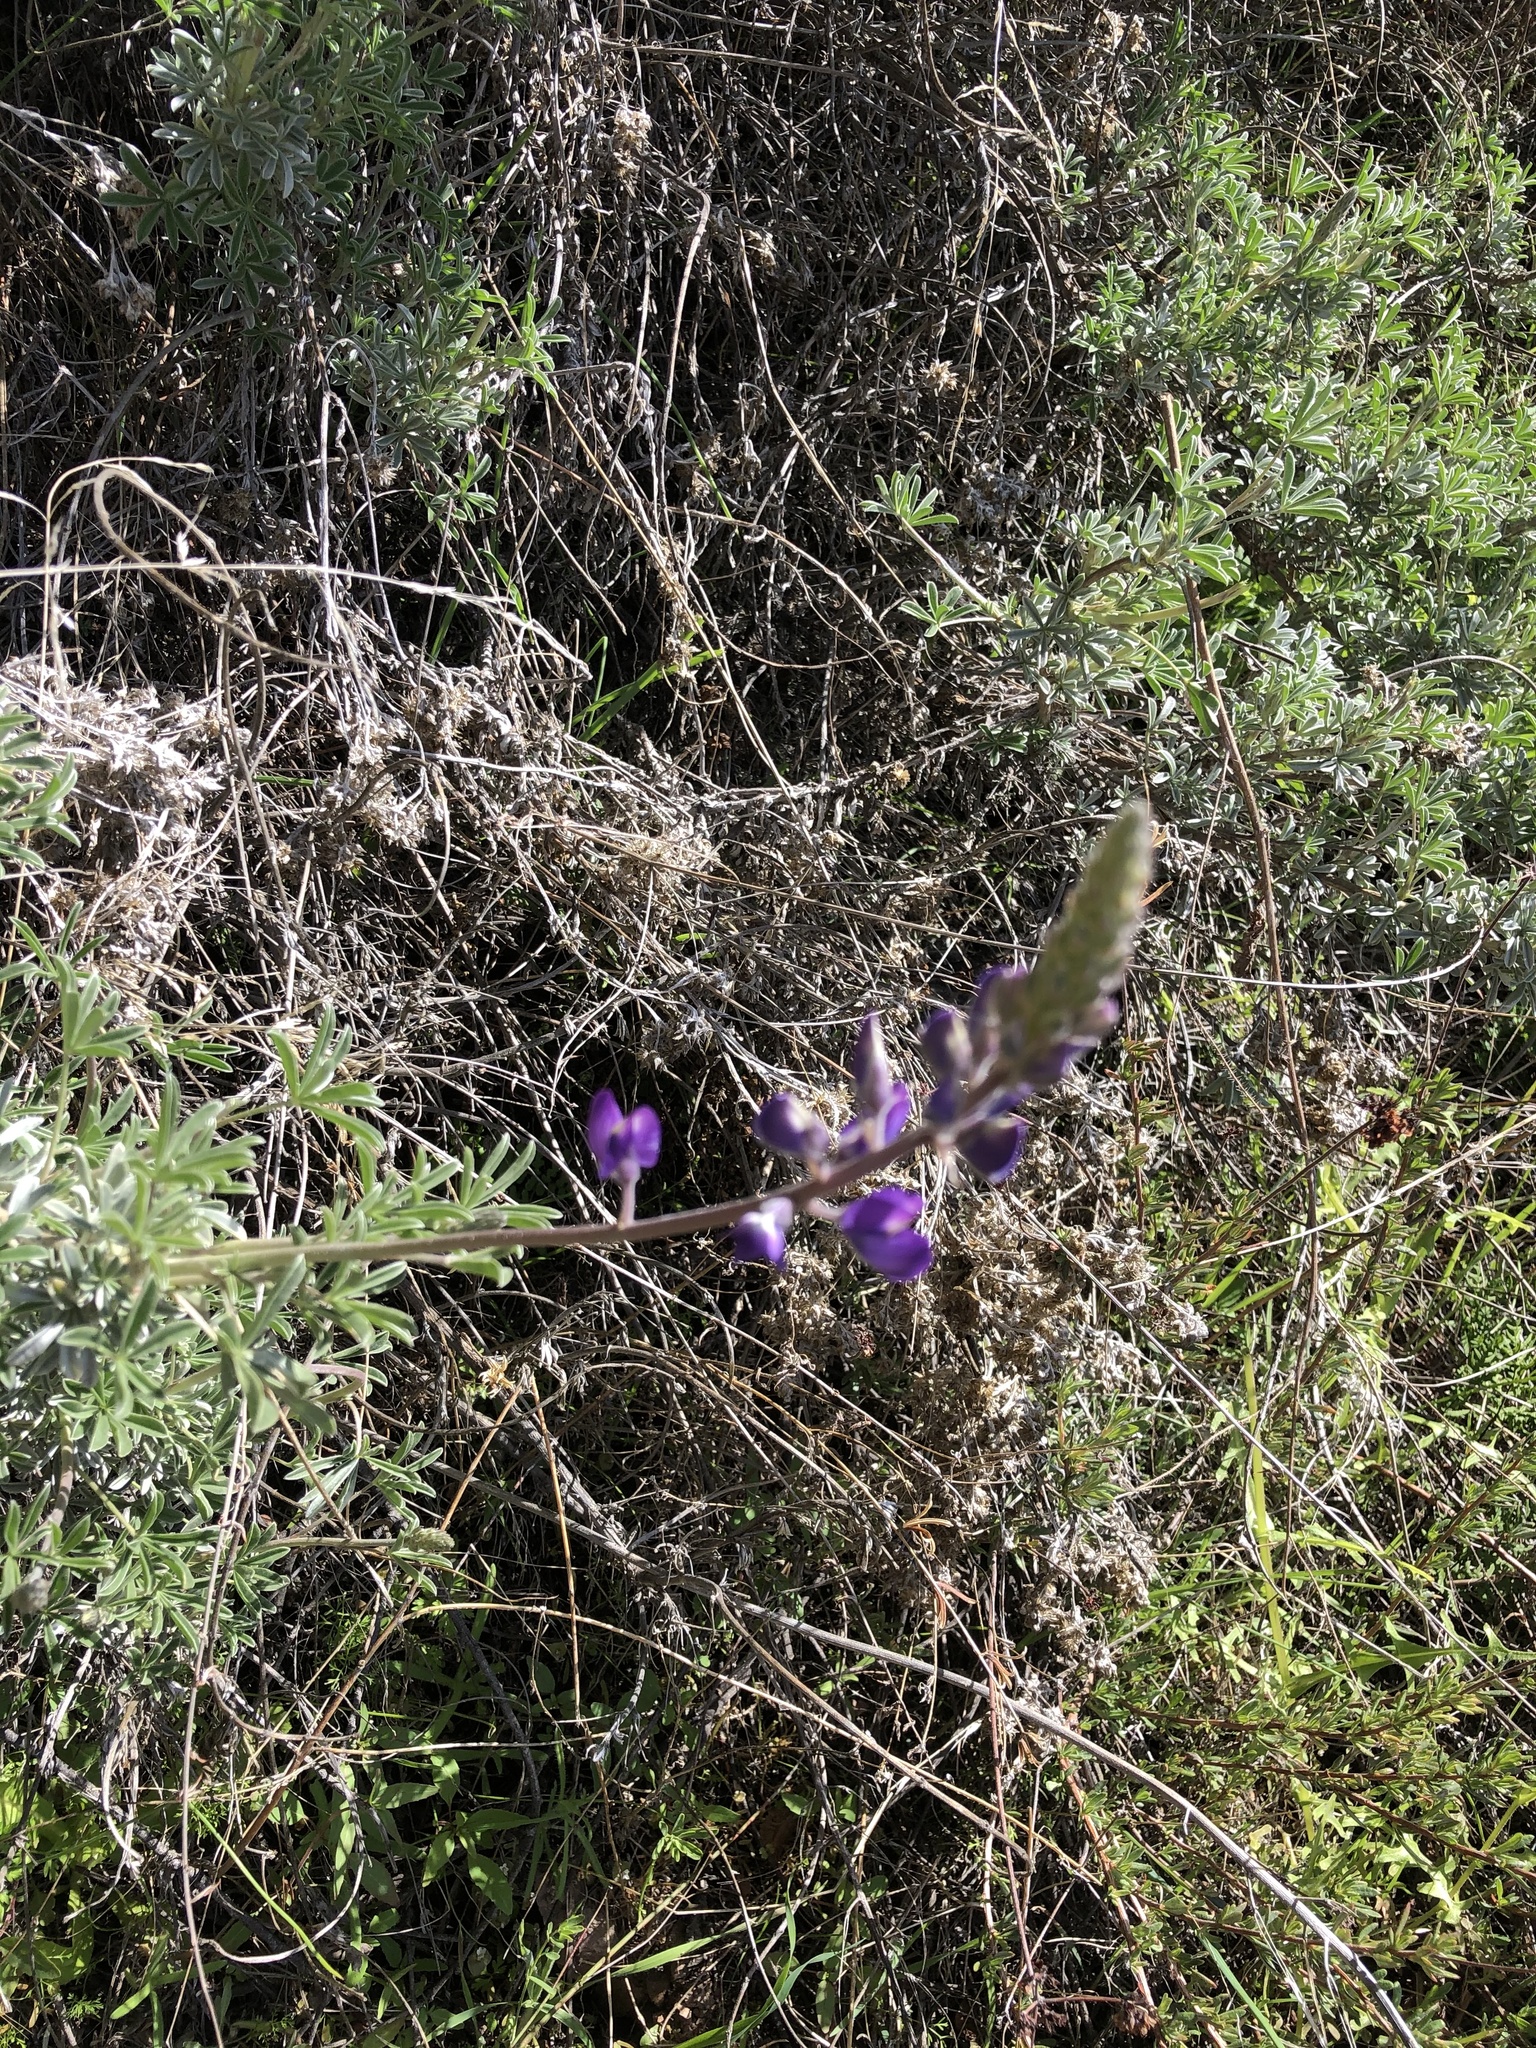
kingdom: Plantae
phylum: Tracheophyta
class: Magnoliopsida
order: Fabales
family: Fabaceae
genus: Lupinus
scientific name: Lupinus albifrons
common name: Foothill lupine
